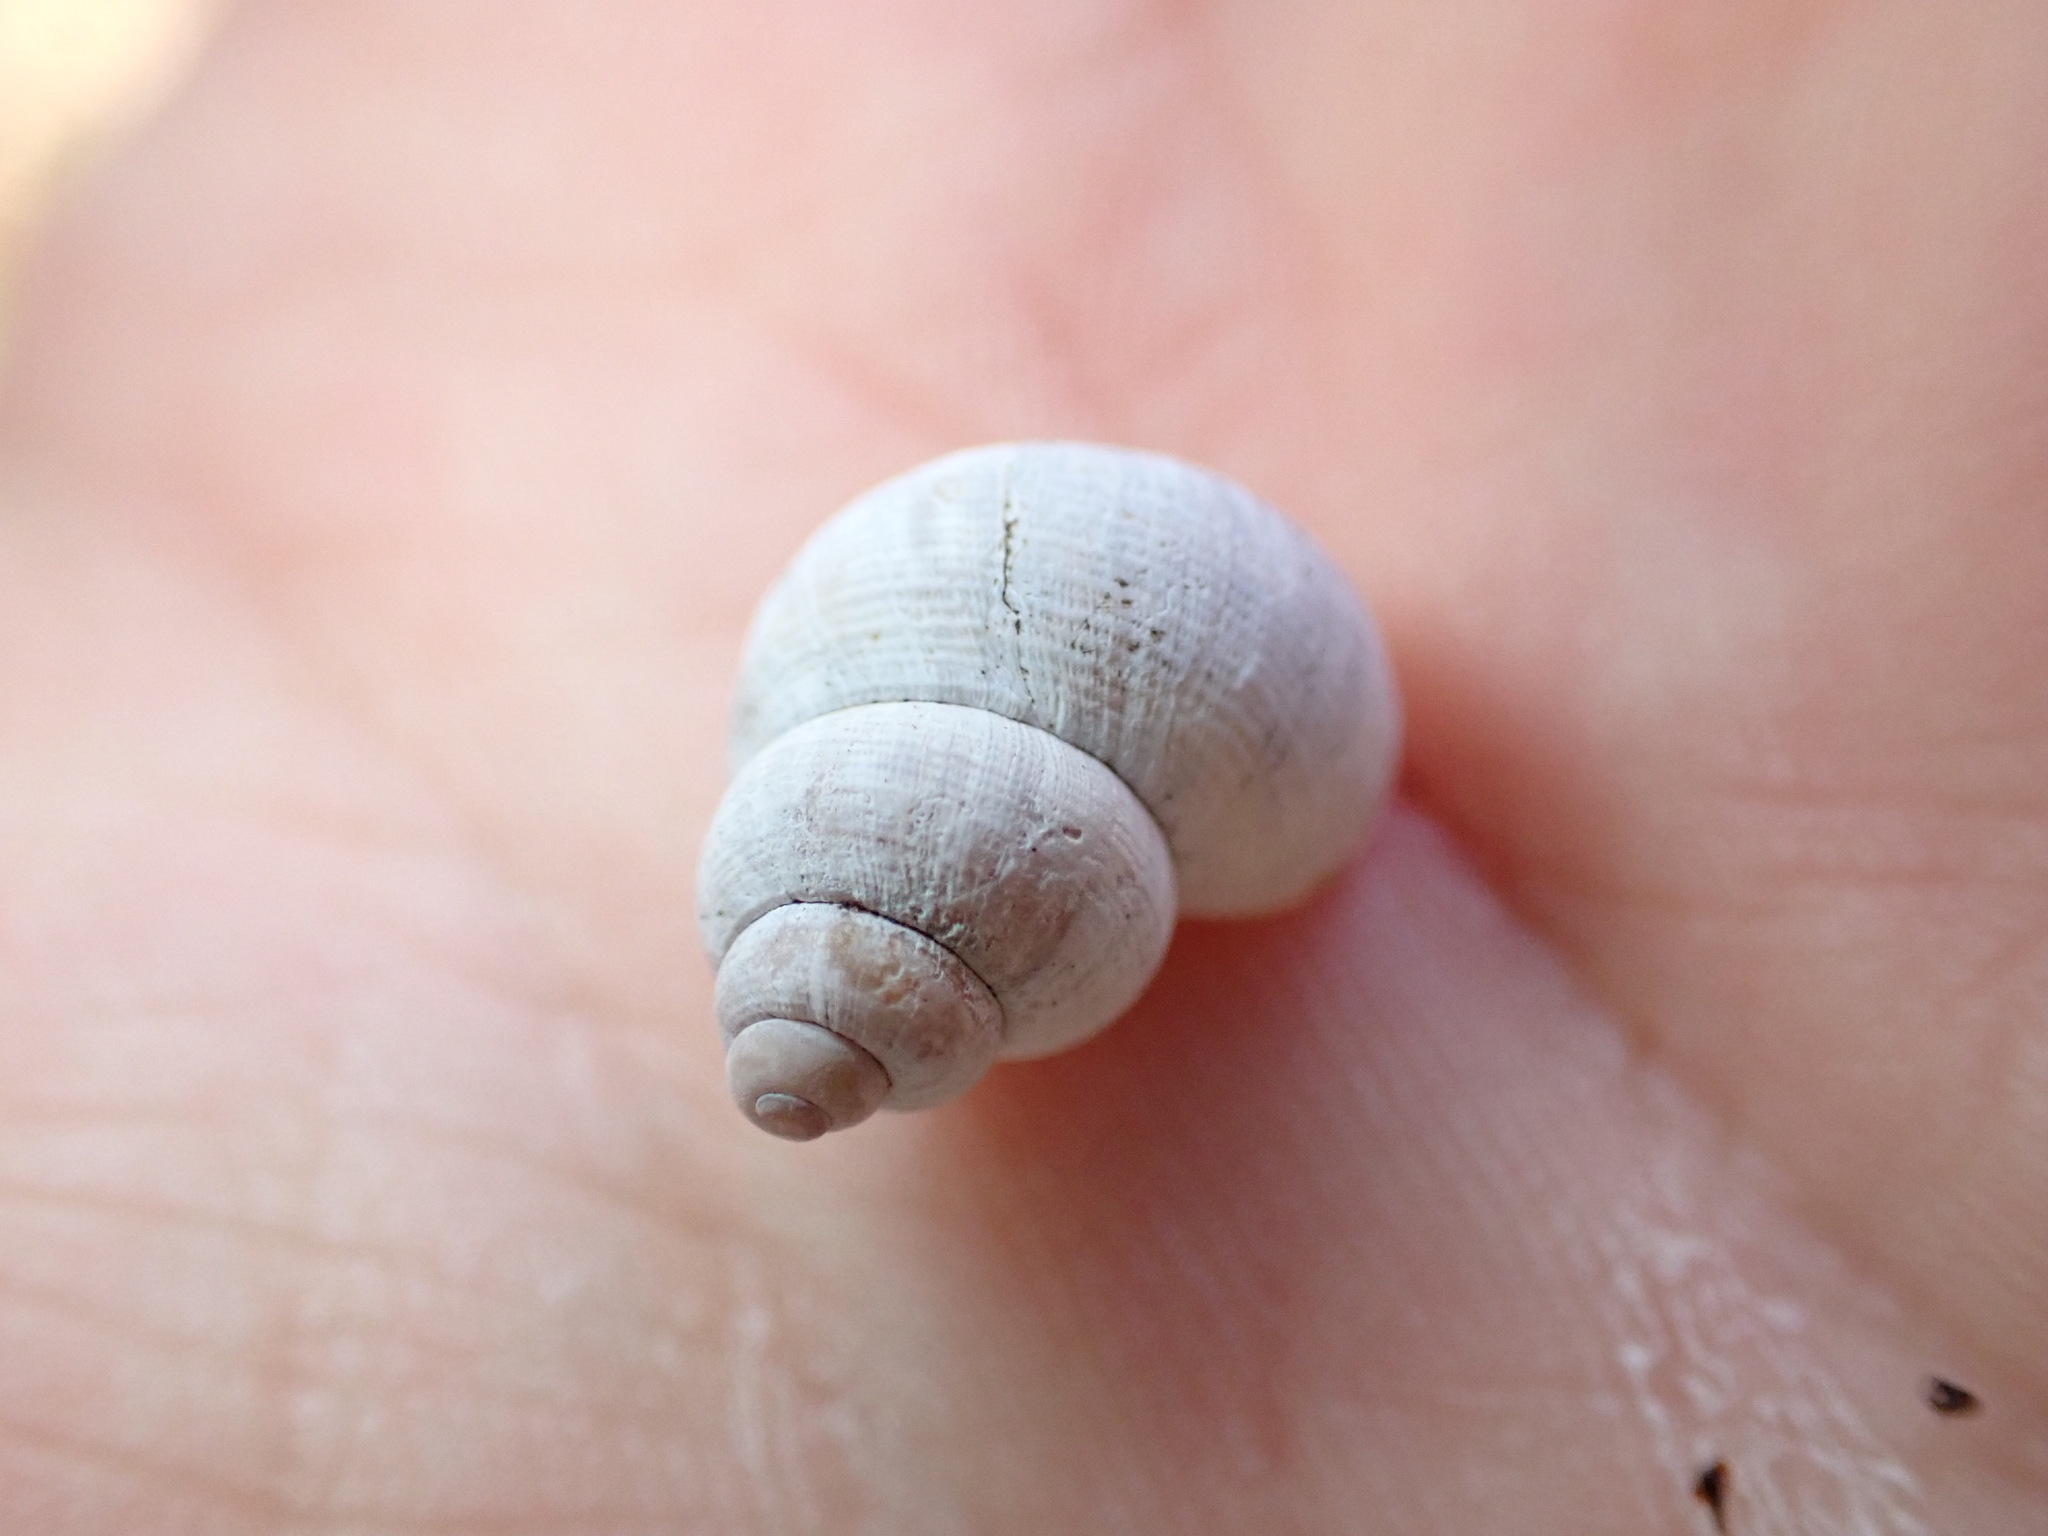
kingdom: Animalia
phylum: Mollusca
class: Gastropoda
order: Littorinimorpha
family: Pomatiidae
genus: Pomatias
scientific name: Pomatias elegans
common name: Red-mouthed snail
